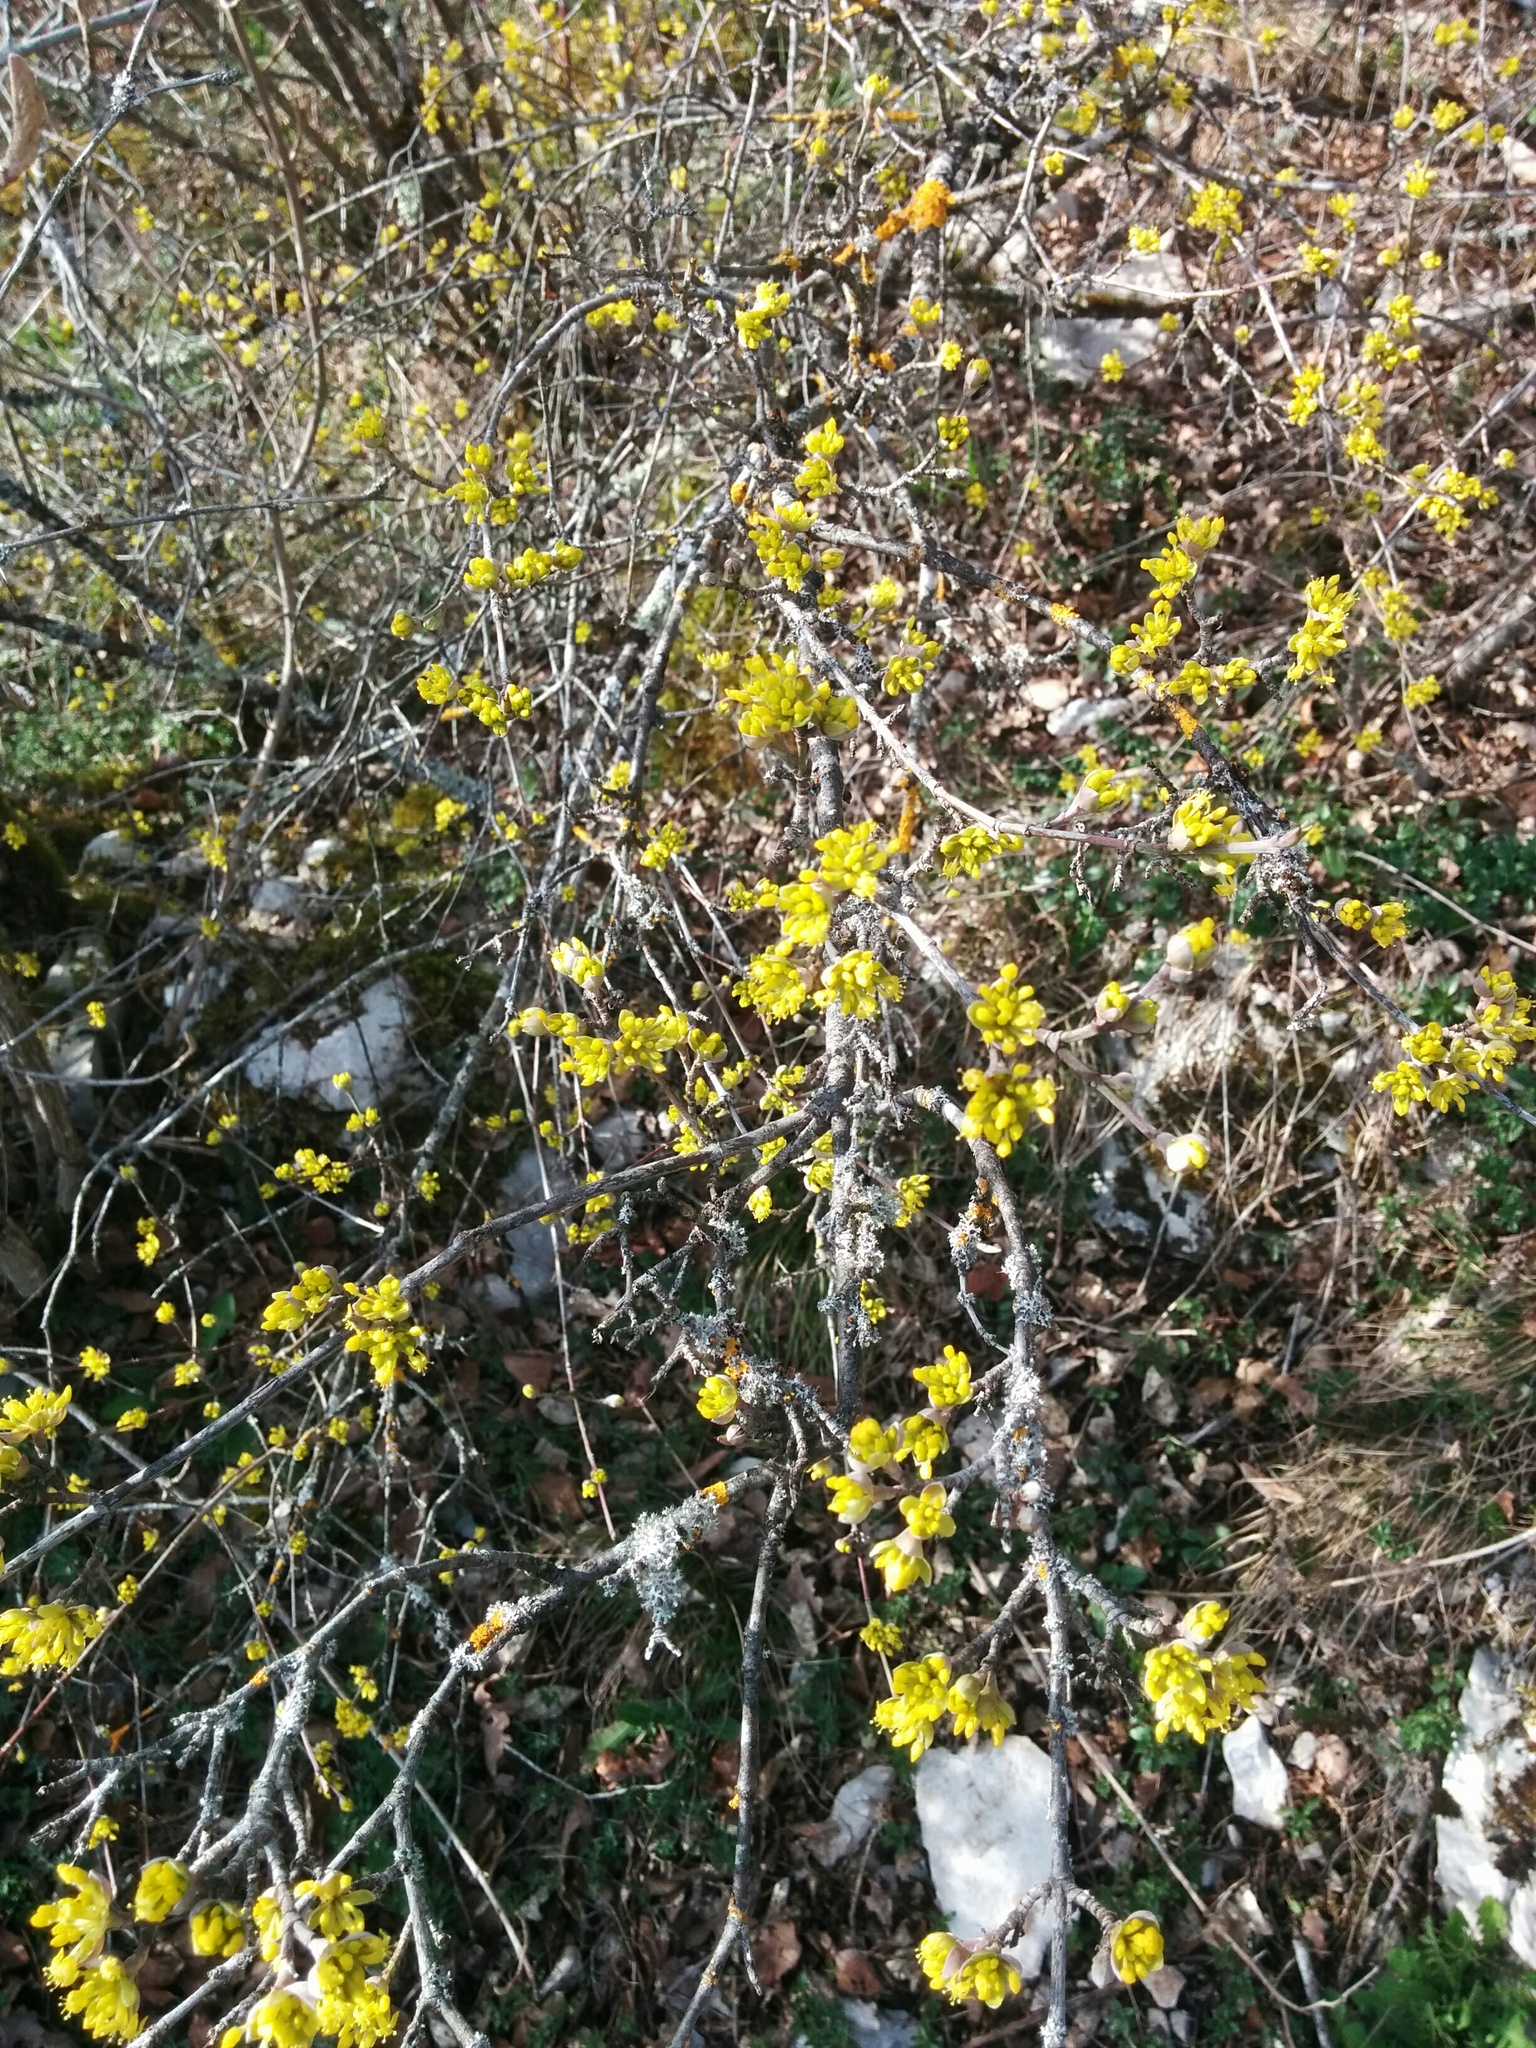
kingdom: Plantae
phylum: Tracheophyta
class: Magnoliopsida
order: Cornales
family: Cornaceae
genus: Cornus
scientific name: Cornus mas
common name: Cornelian-cherry
